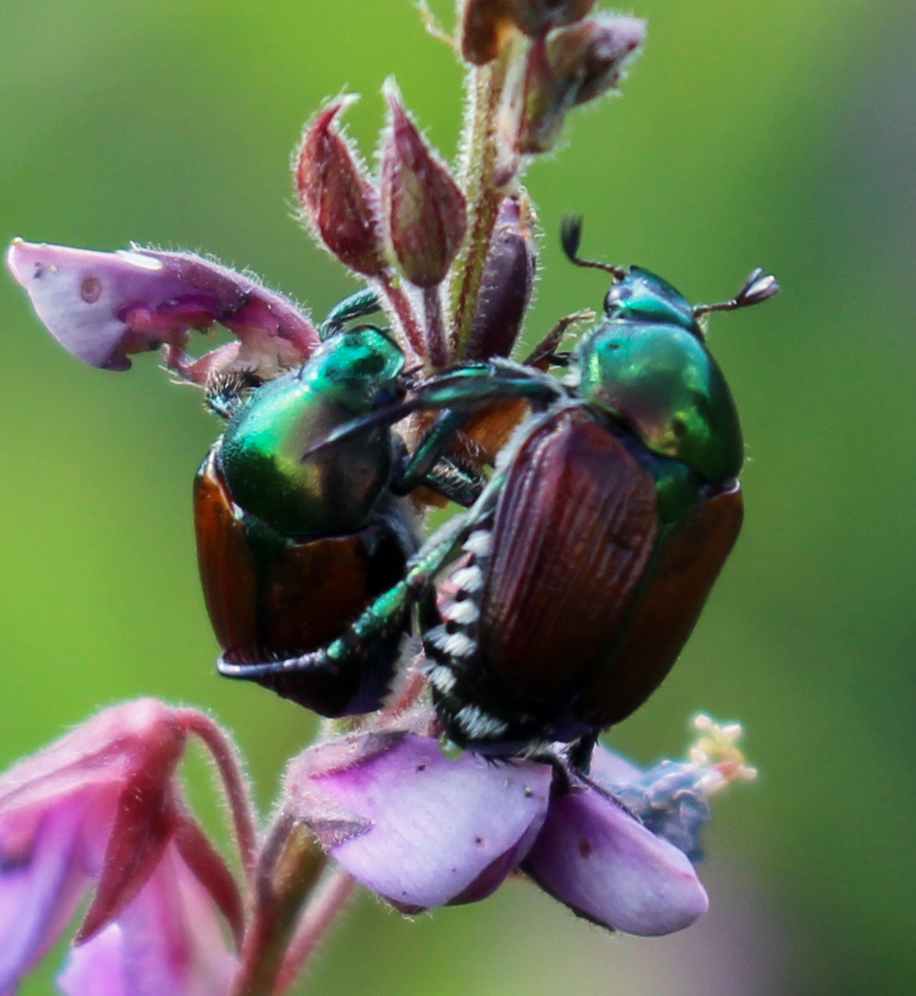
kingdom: Animalia
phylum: Arthropoda
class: Insecta
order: Coleoptera
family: Scarabaeidae
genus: Popillia
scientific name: Popillia japonica
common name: Japanese beetle
